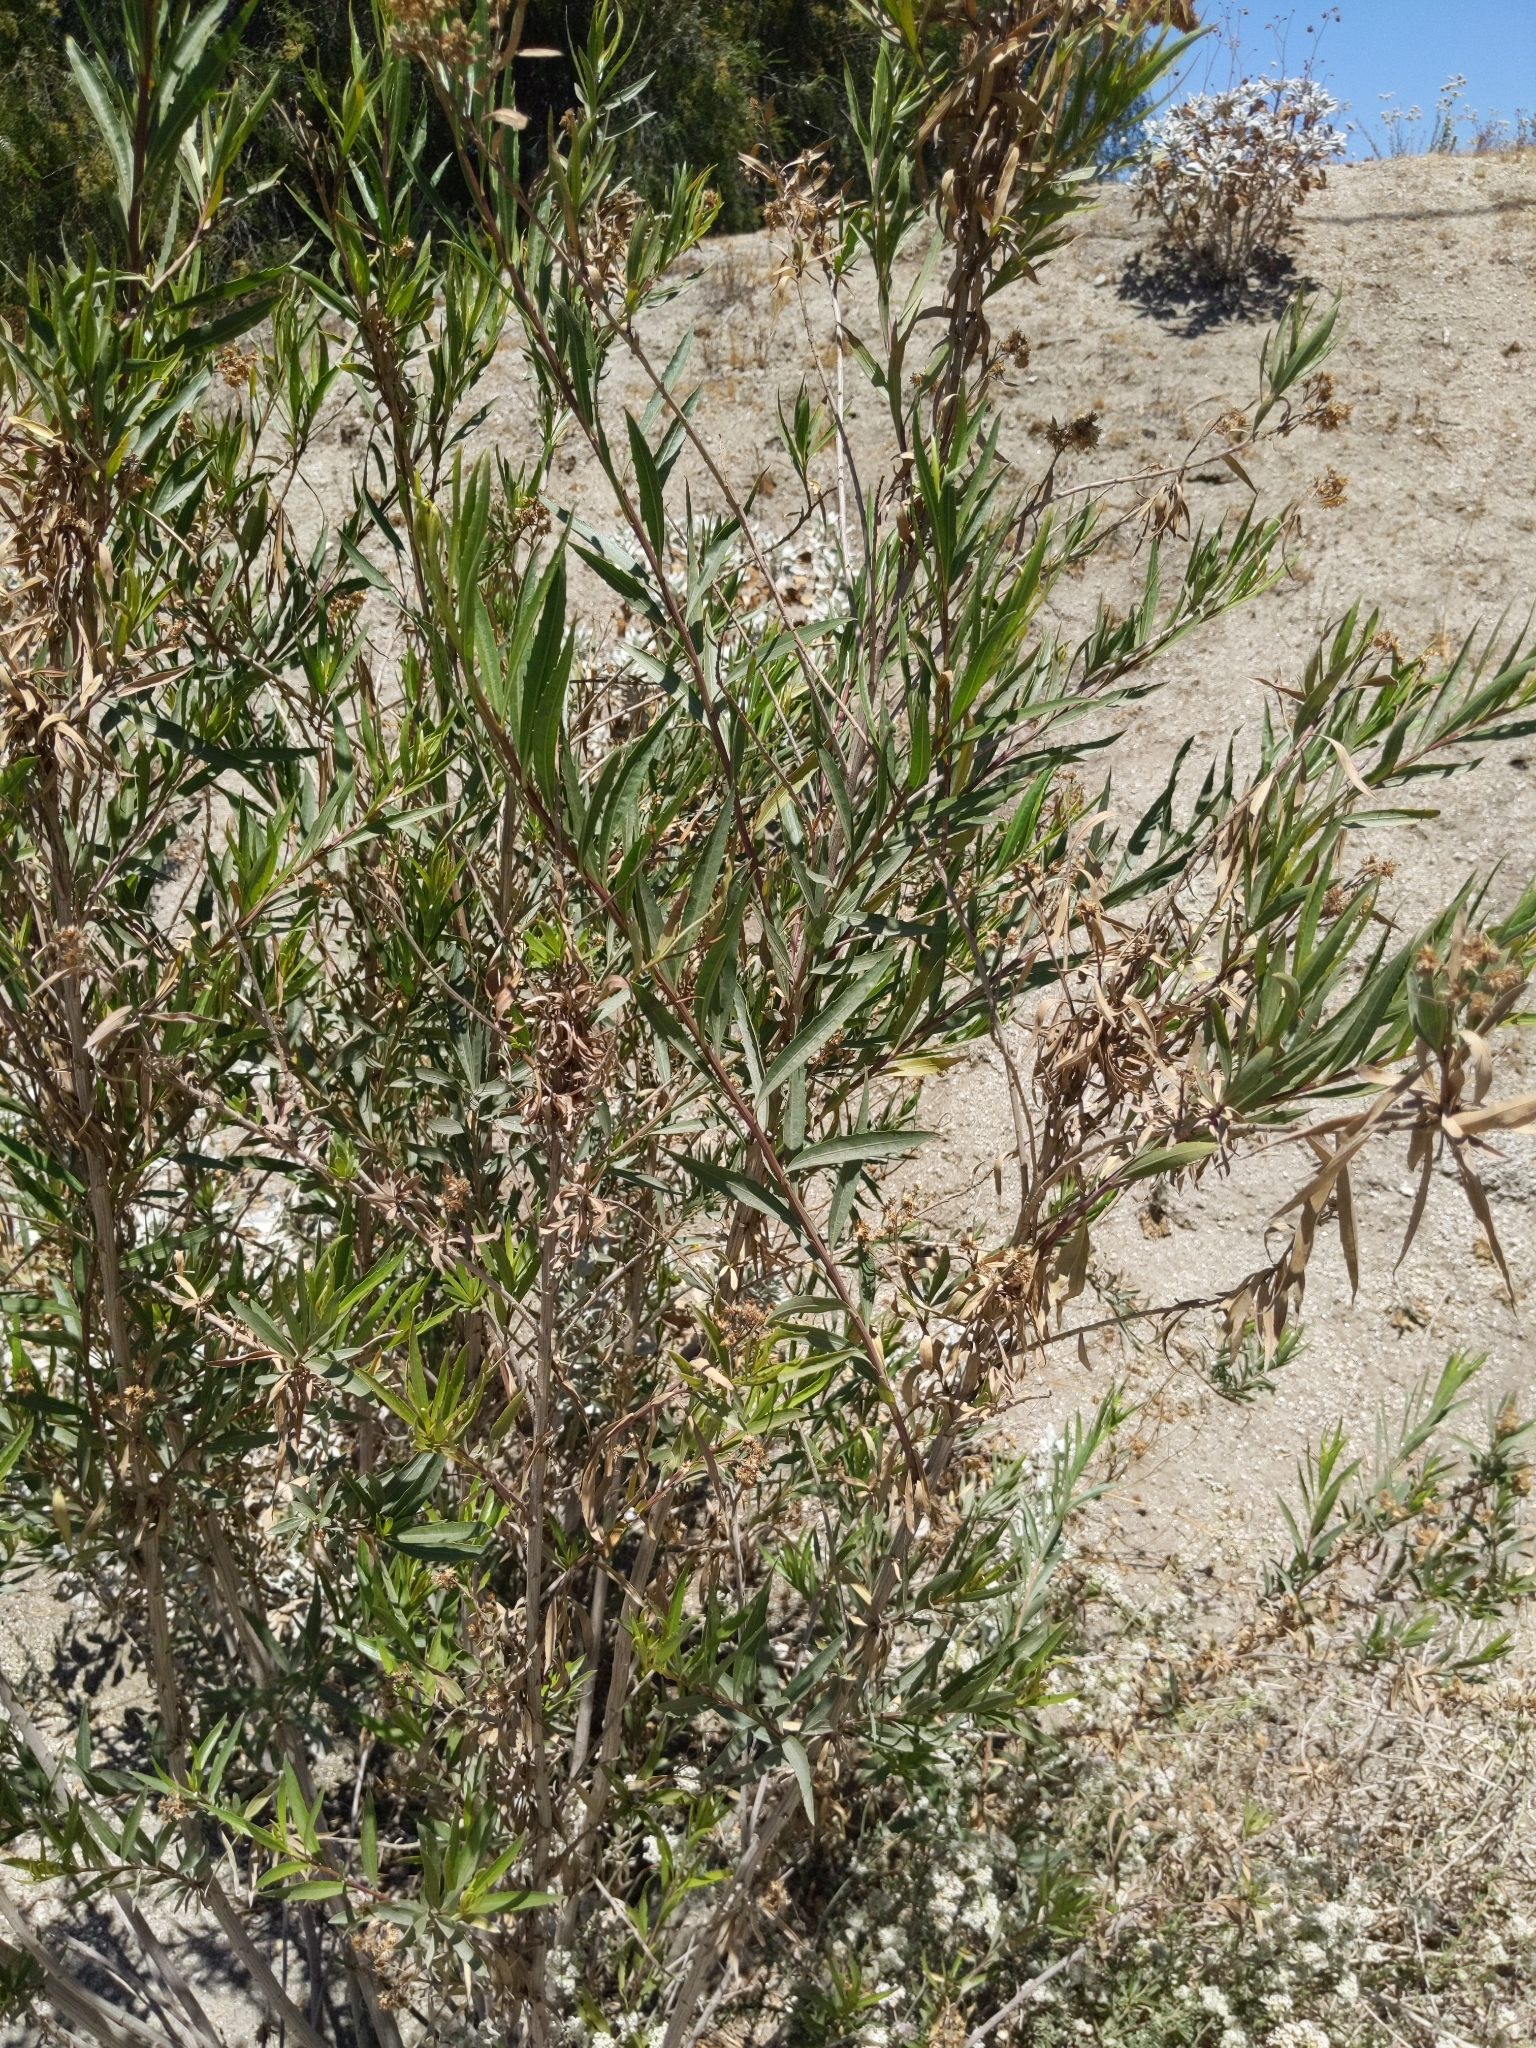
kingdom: Plantae
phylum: Tracheophyta
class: Magnoliopsida
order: Asterales
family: Asteraceae
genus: Baccharis
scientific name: Baccharis salicifolia
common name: Sticky baccharis
